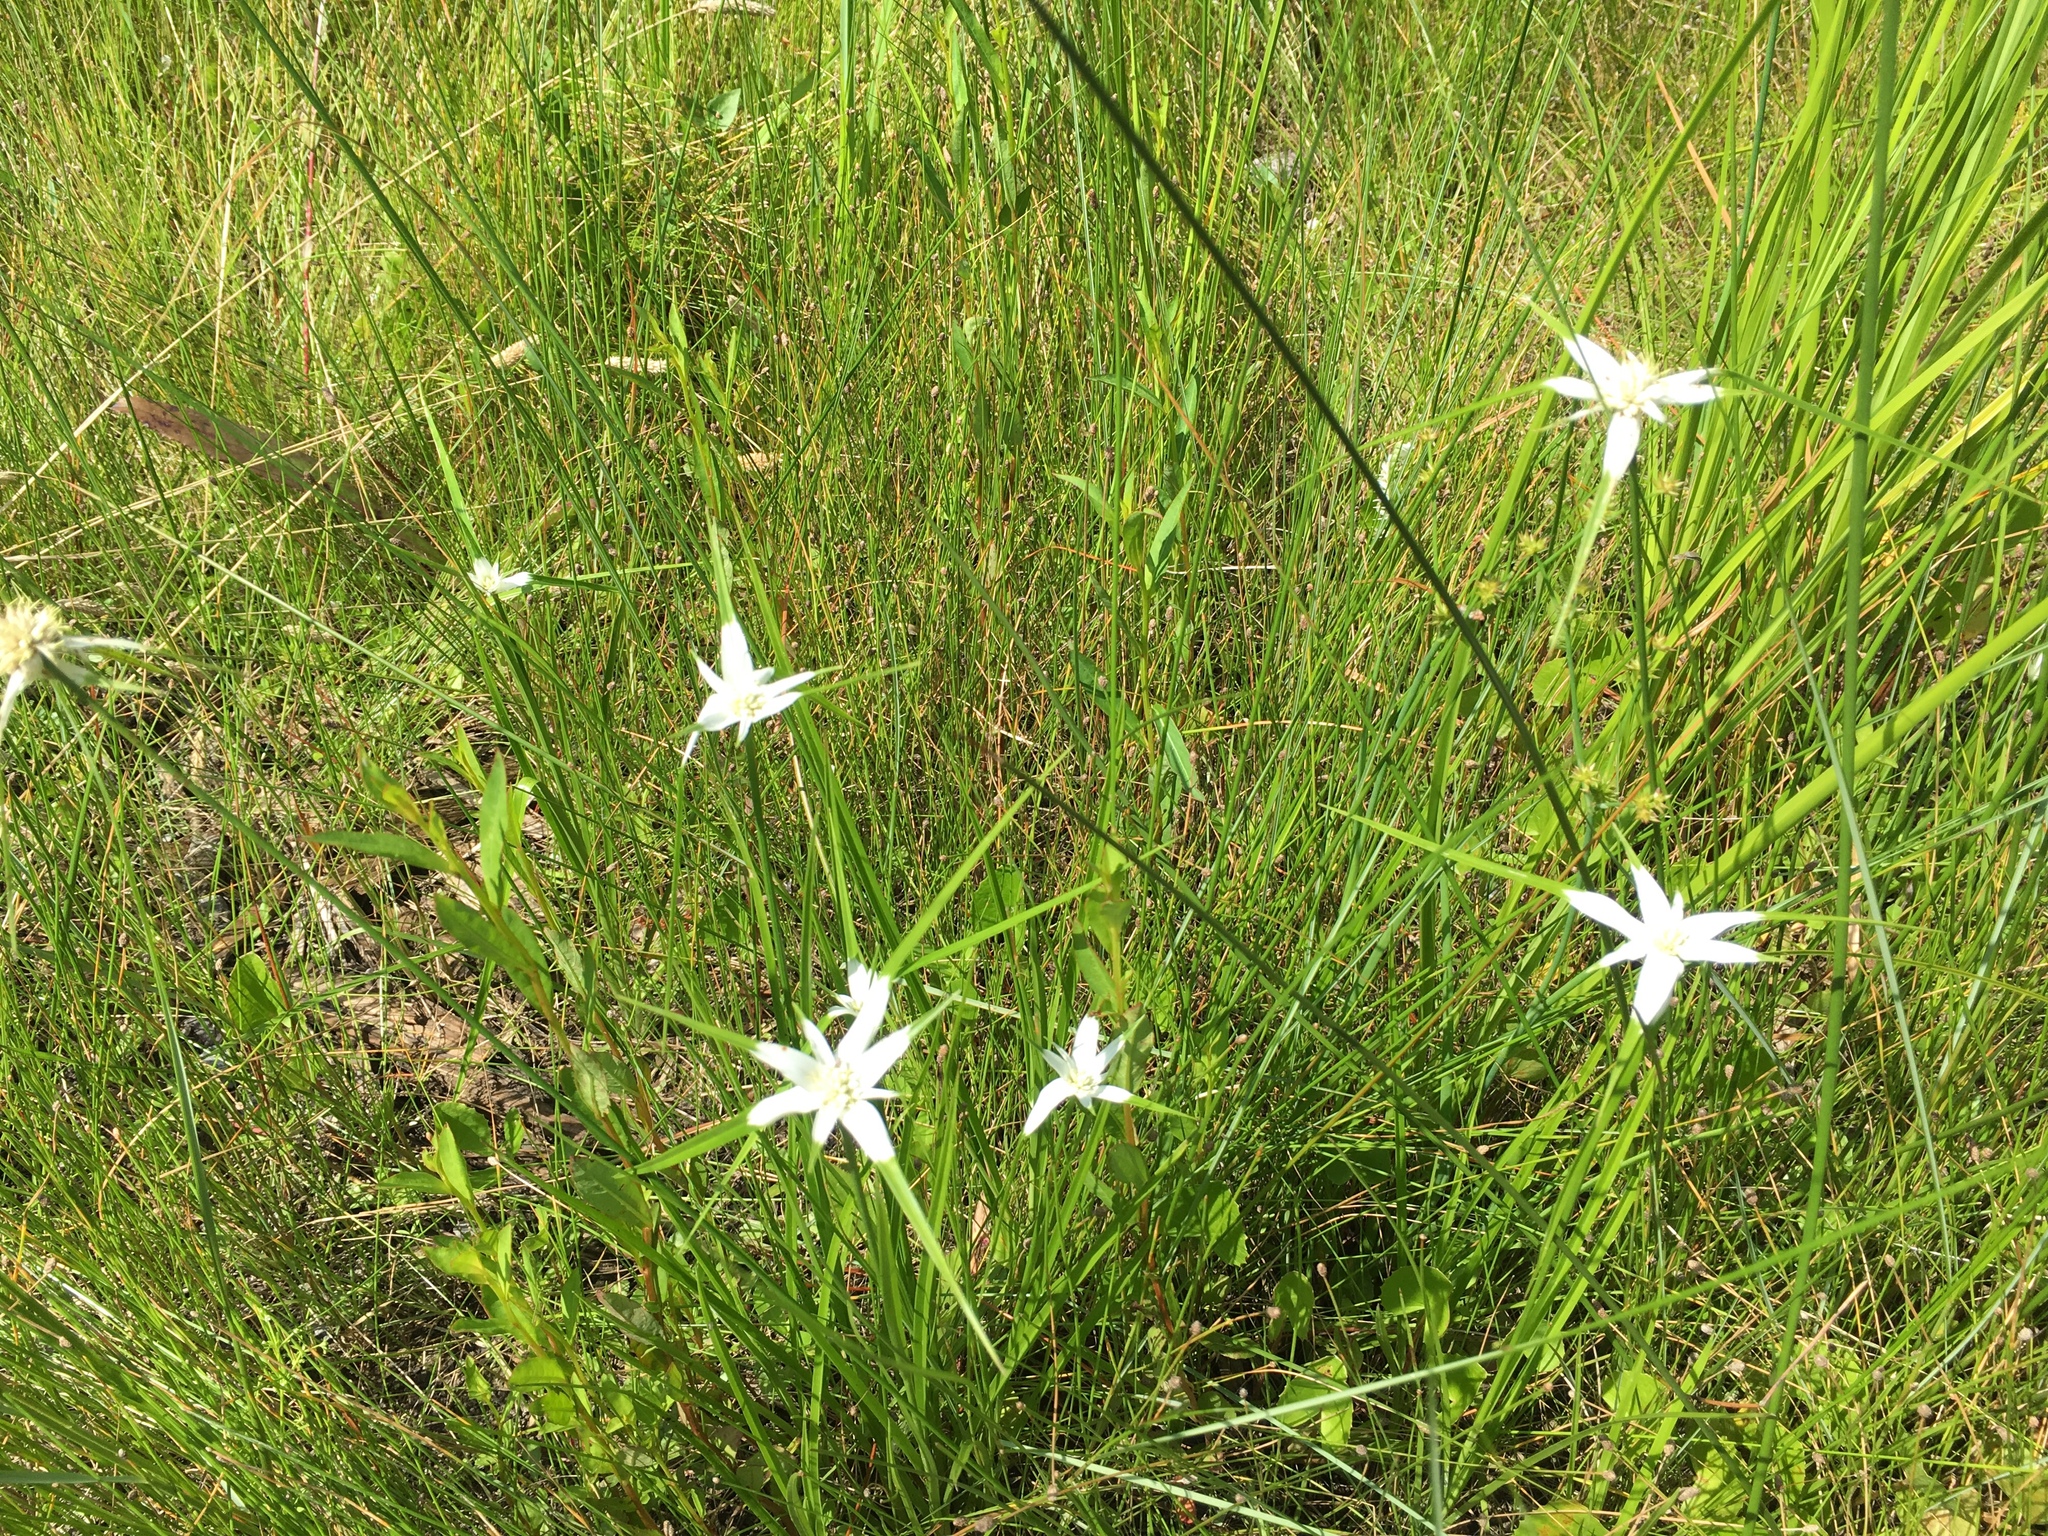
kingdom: Plantae
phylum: Tracheophyta
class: Liliopsida
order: Poales
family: Cyperaceae
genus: Rhynchospora
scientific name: Rhynchospora colorata
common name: Star sedge
